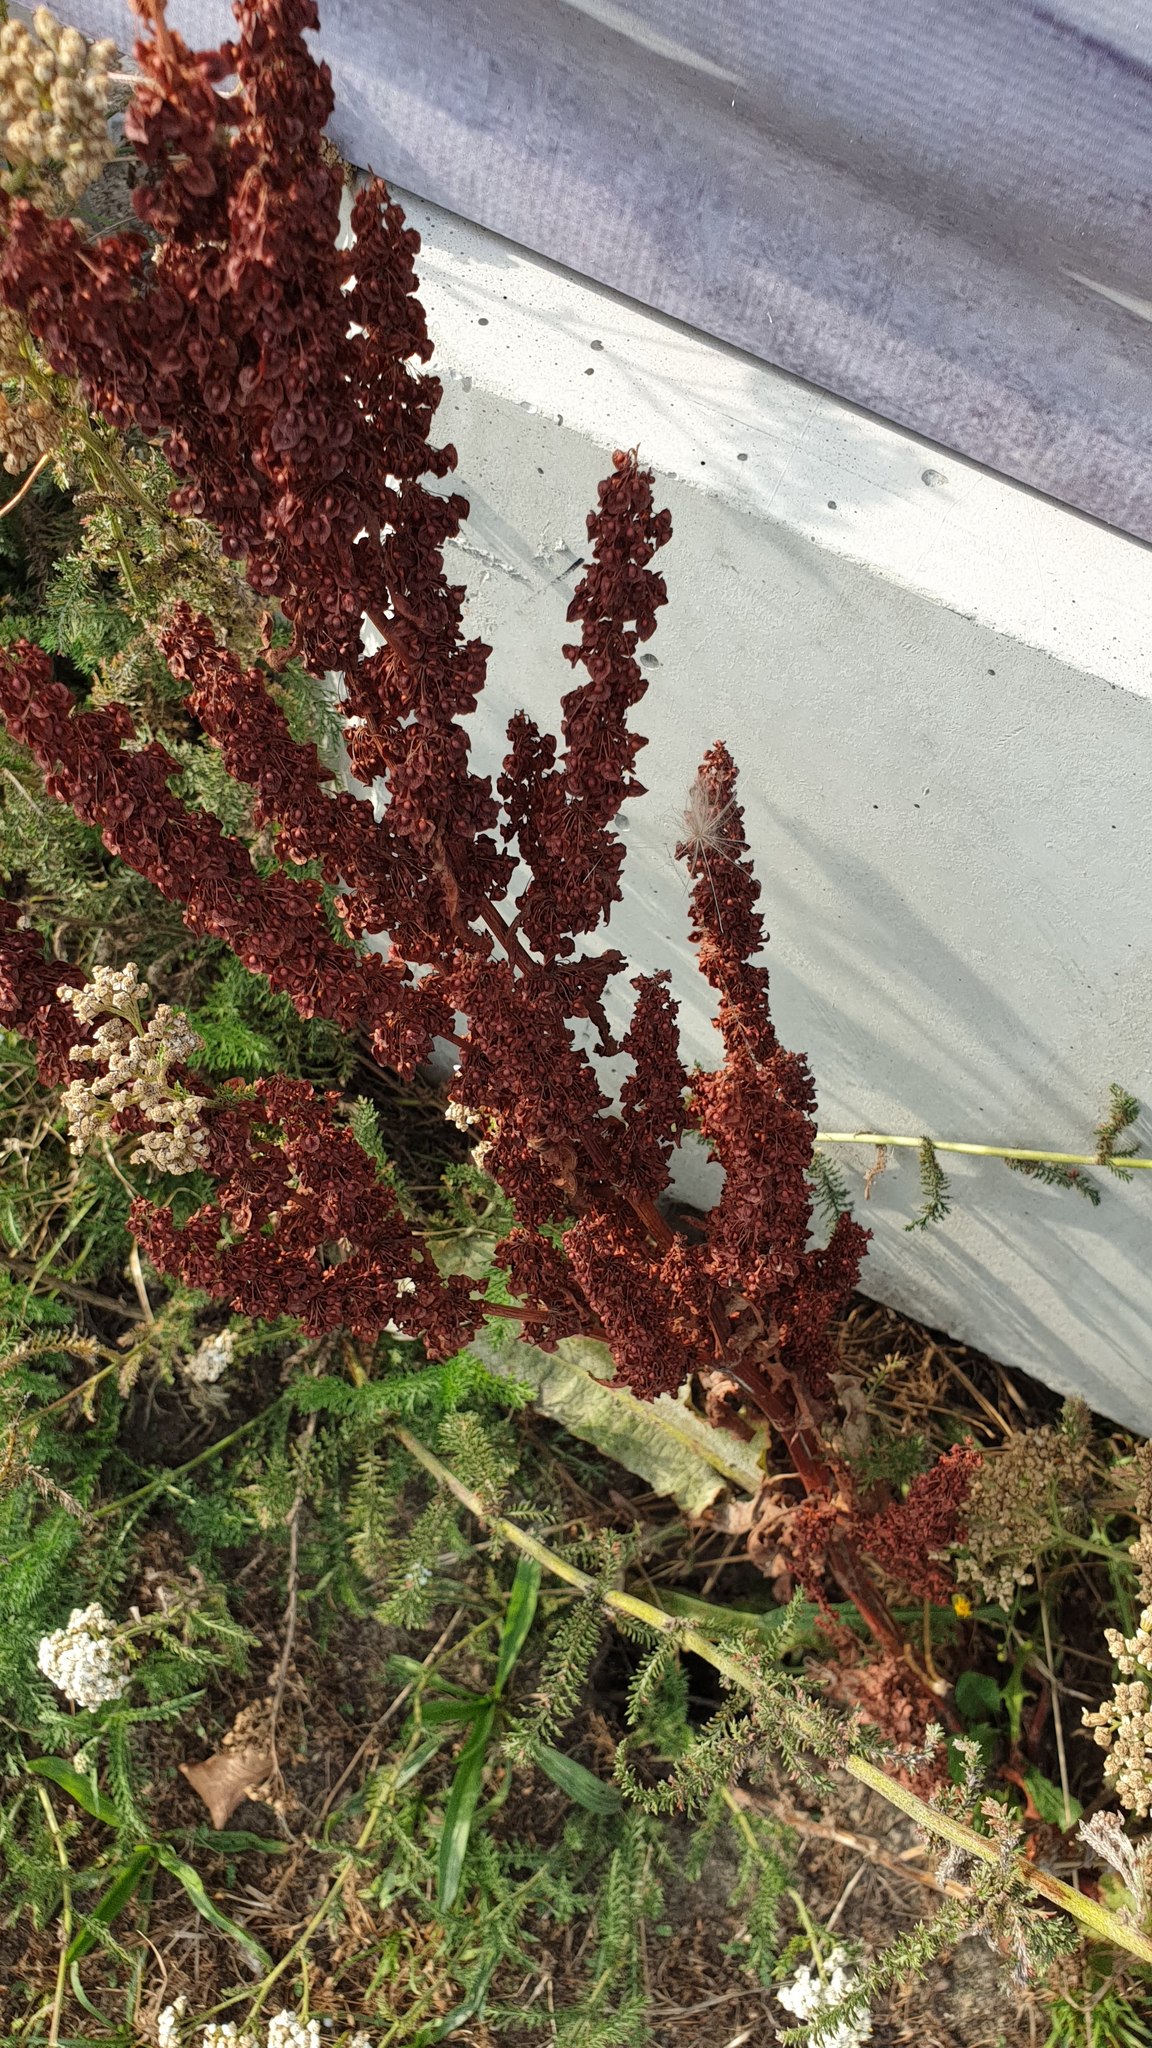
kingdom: Plantae
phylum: Tracheophyta
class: Magnoliopsida
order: Caryophyllales
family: Polygonaceae
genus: Rumex
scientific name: Rumex crispus
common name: Curled dock
